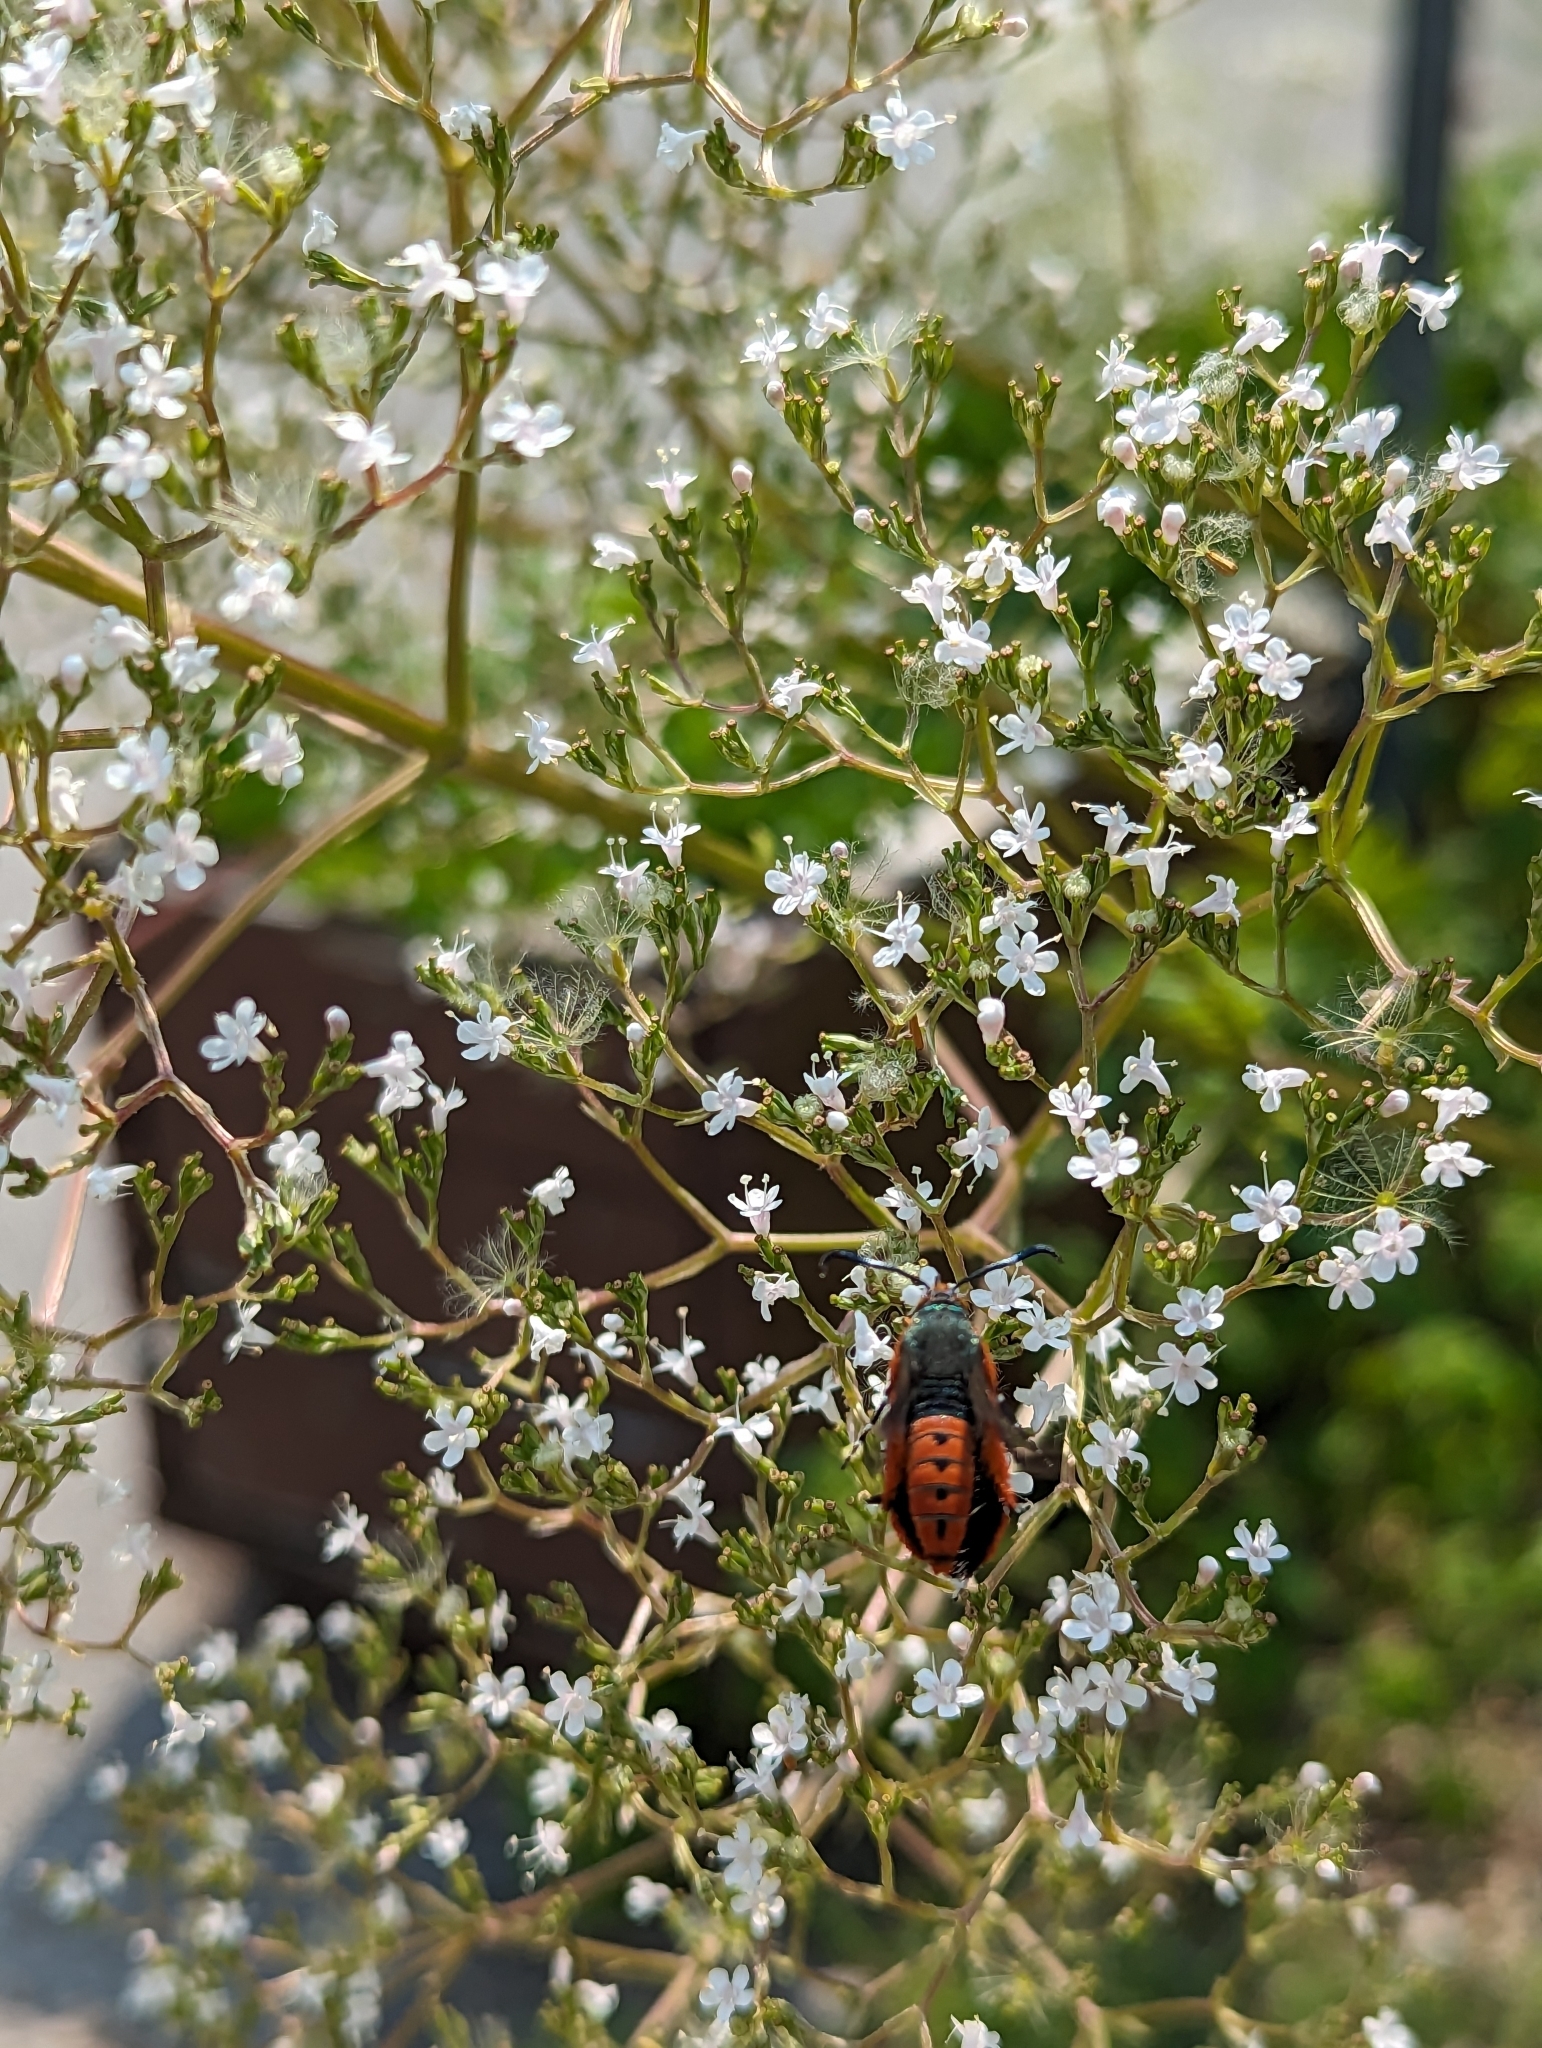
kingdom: Animalia
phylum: Arthropoda
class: Insecta
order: Lepidoptera
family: Sesiidae
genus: Eichlinia
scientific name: Eichlinia cucurbitae
